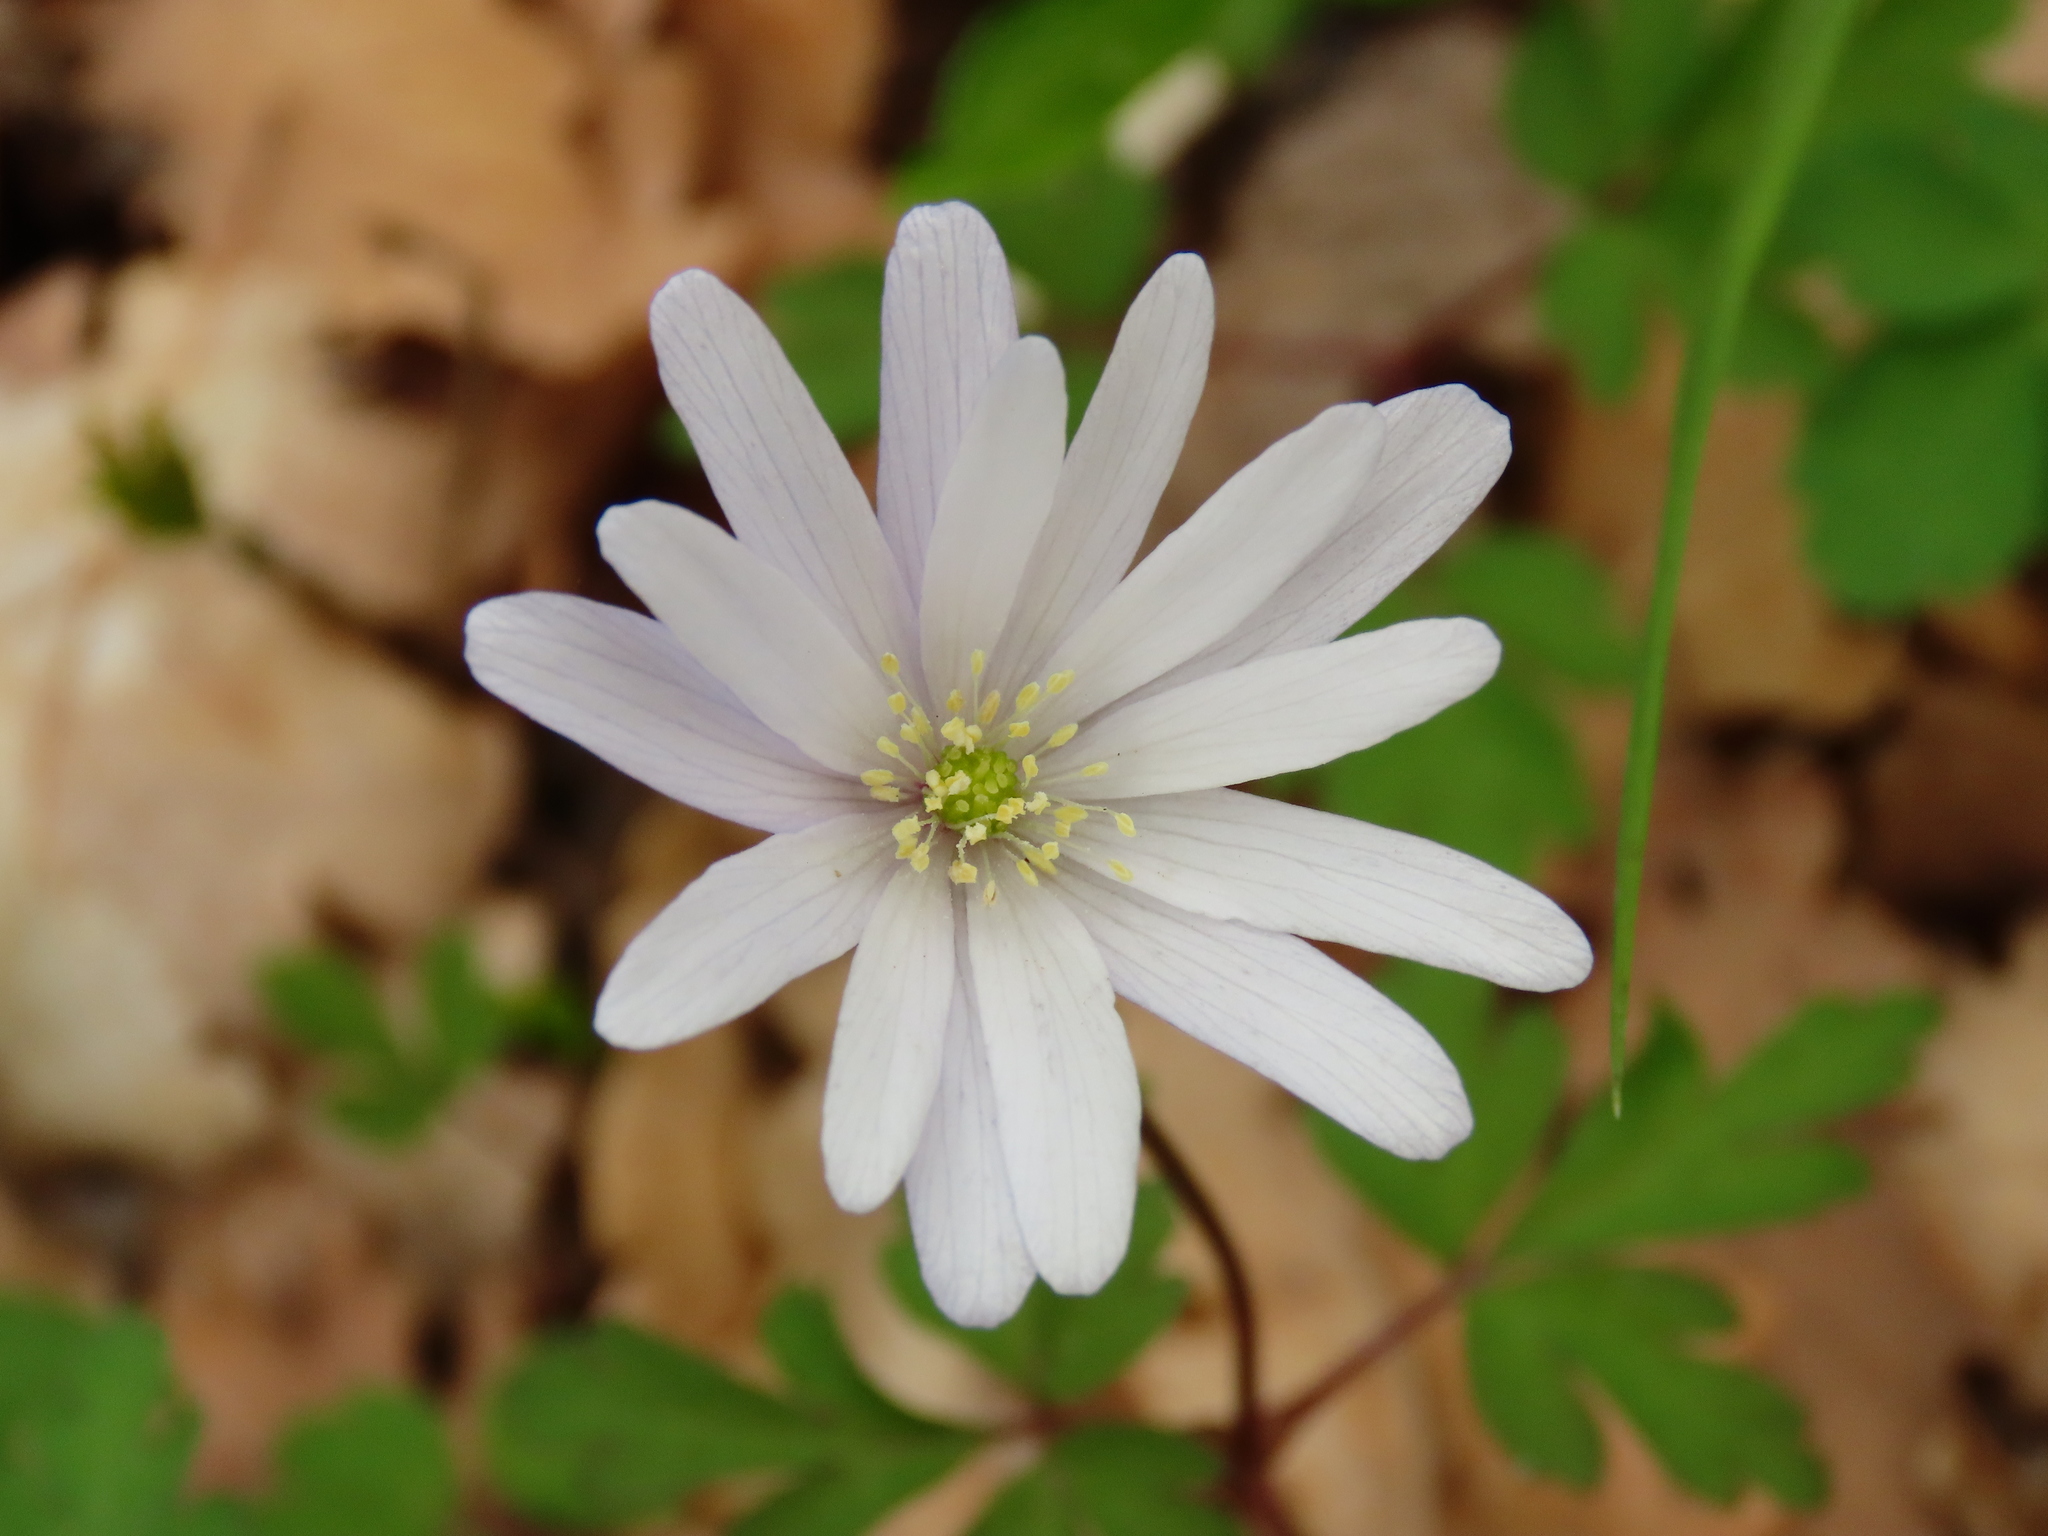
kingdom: Plantae
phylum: Tracheophyta
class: Magnoliopsida
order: Ranunculales
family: Ranunculaceae
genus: Anemone
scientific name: Anemone apennina
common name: Blue anemone
